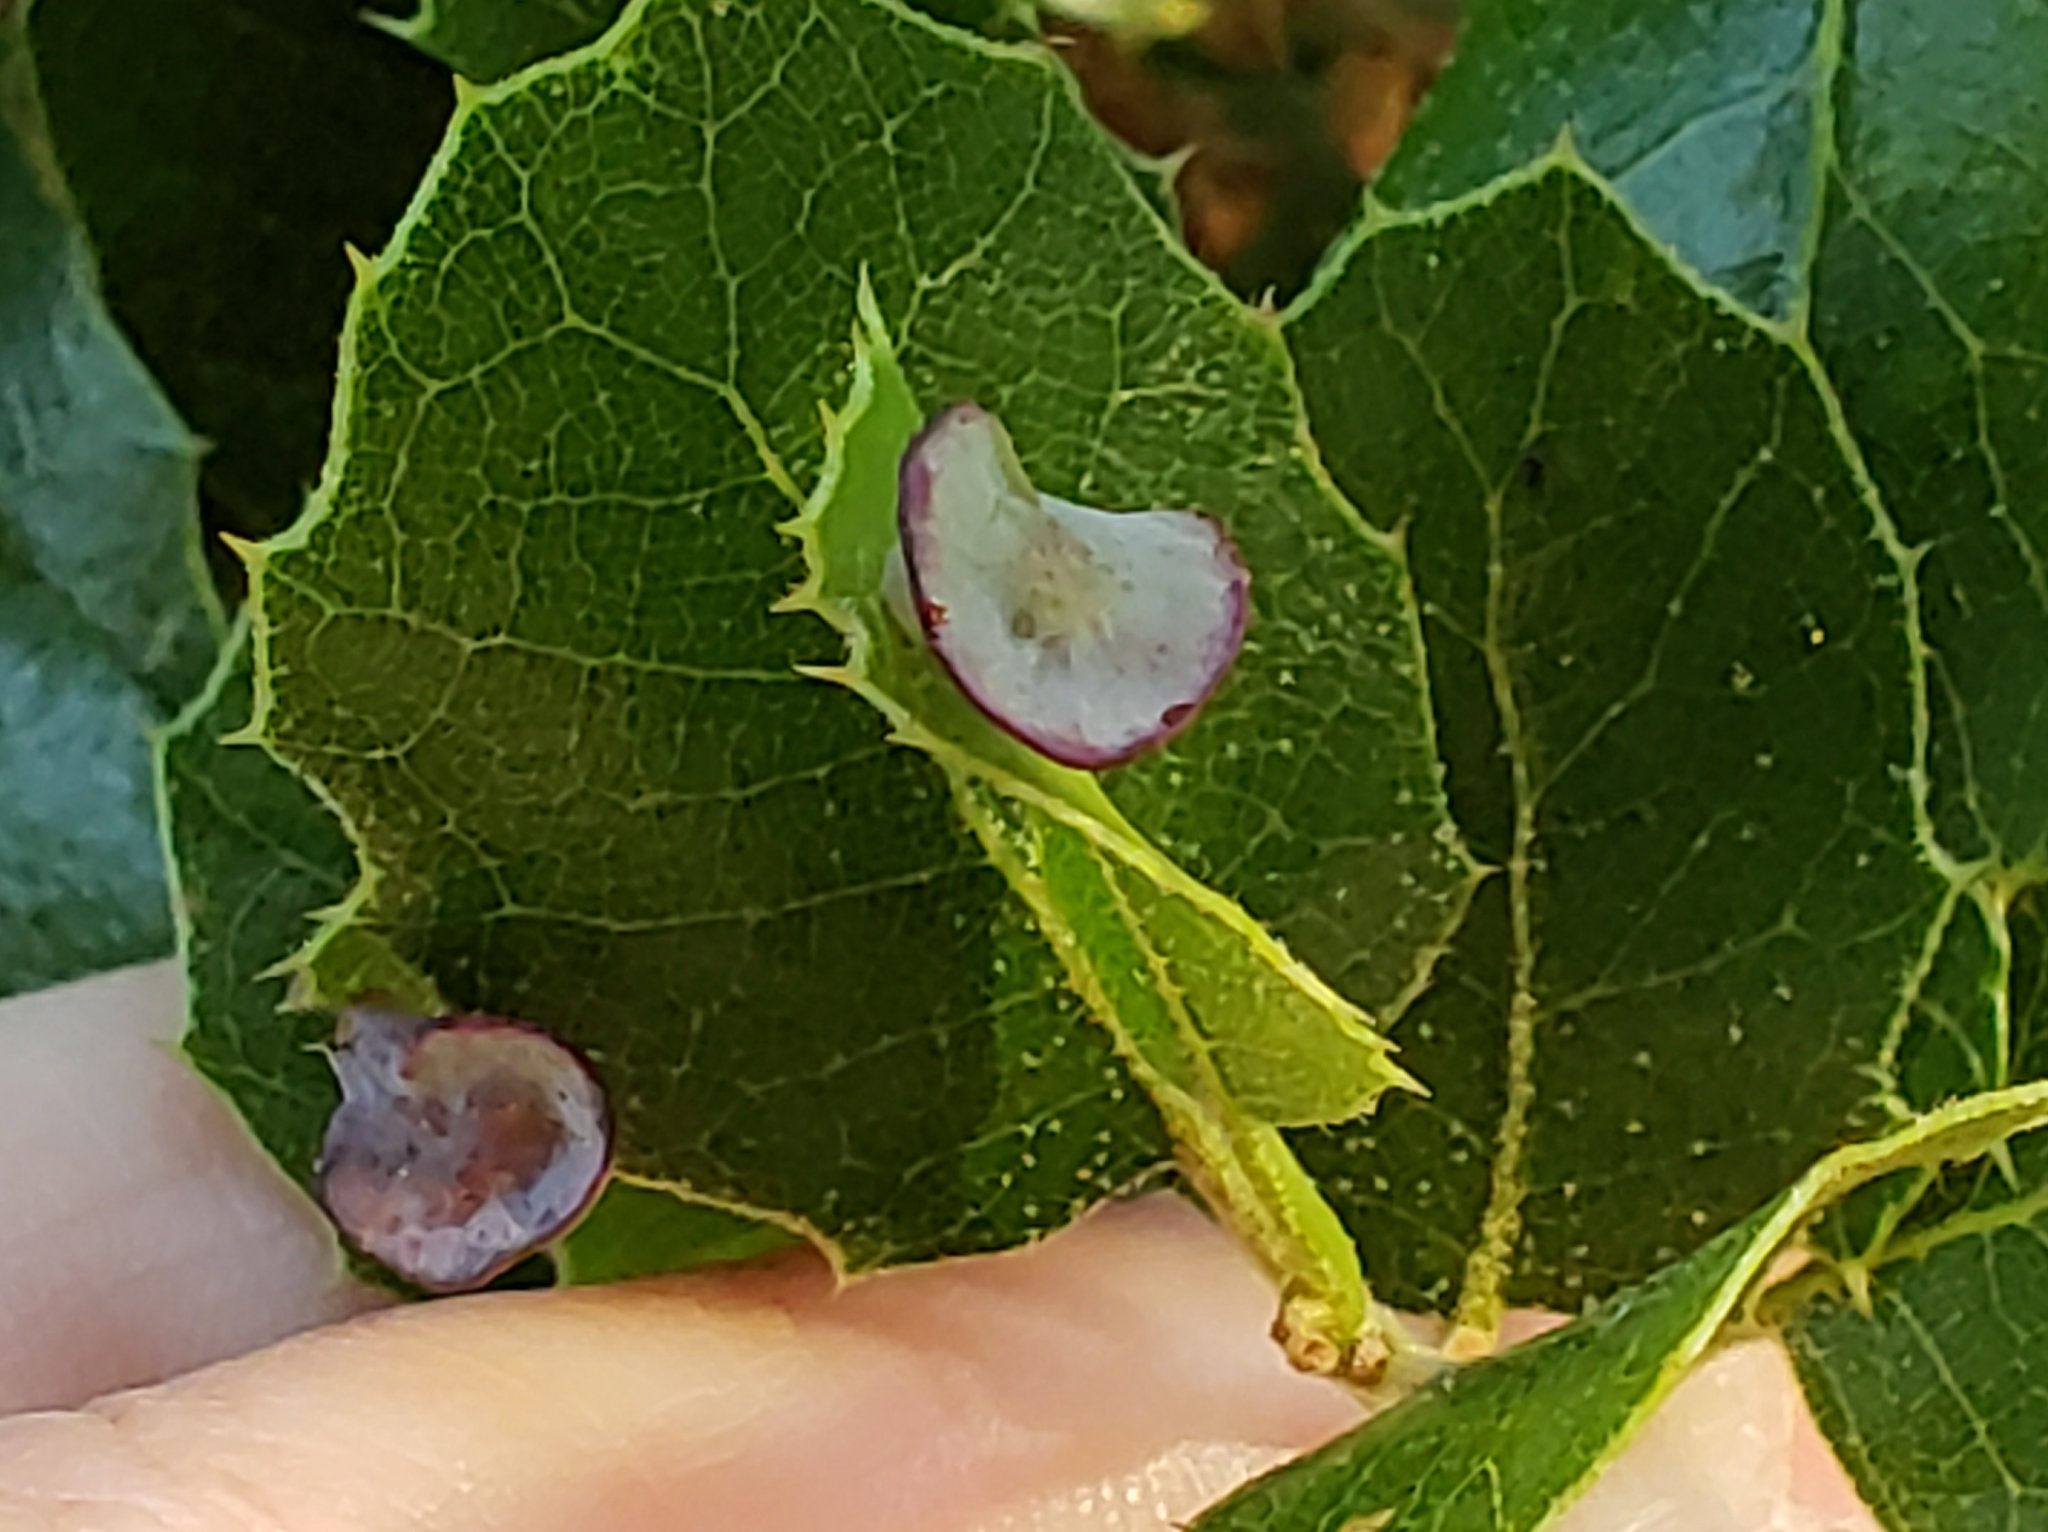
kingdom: Animalia
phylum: Arthropoda
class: Insecta
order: Hymenoptera
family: Cynipidae
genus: Amphibolips
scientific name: Amphibolips quercuspomiformis
